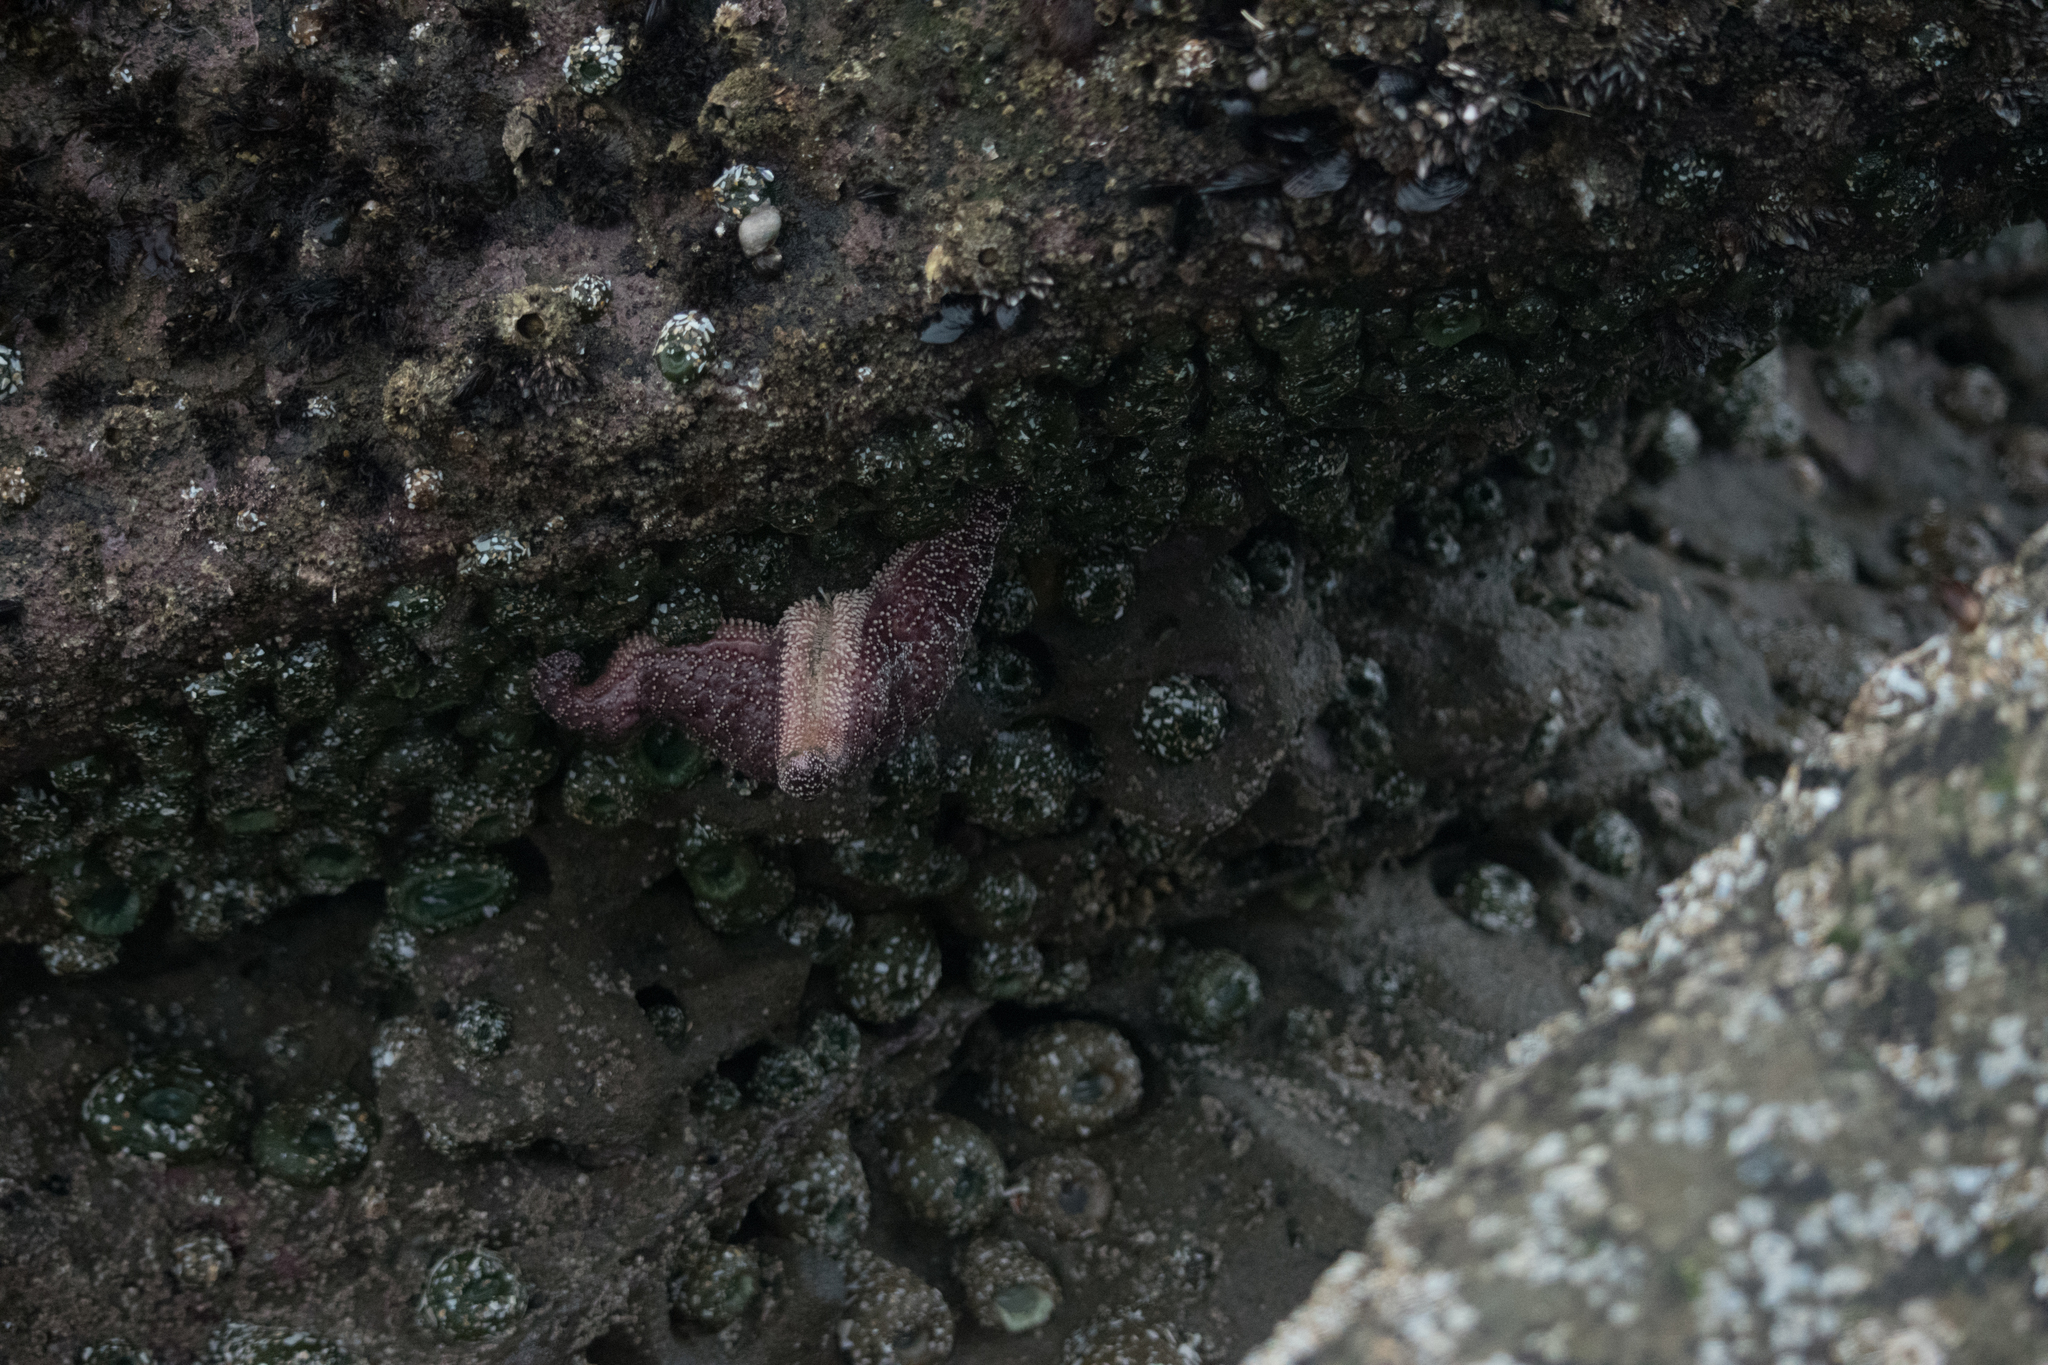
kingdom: Animalia
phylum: Echinodermata
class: Asteroidea
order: Forcipulatida
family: Asteriidae
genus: Pisaster
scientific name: Pisaster ochraceus
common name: Ochre stars
